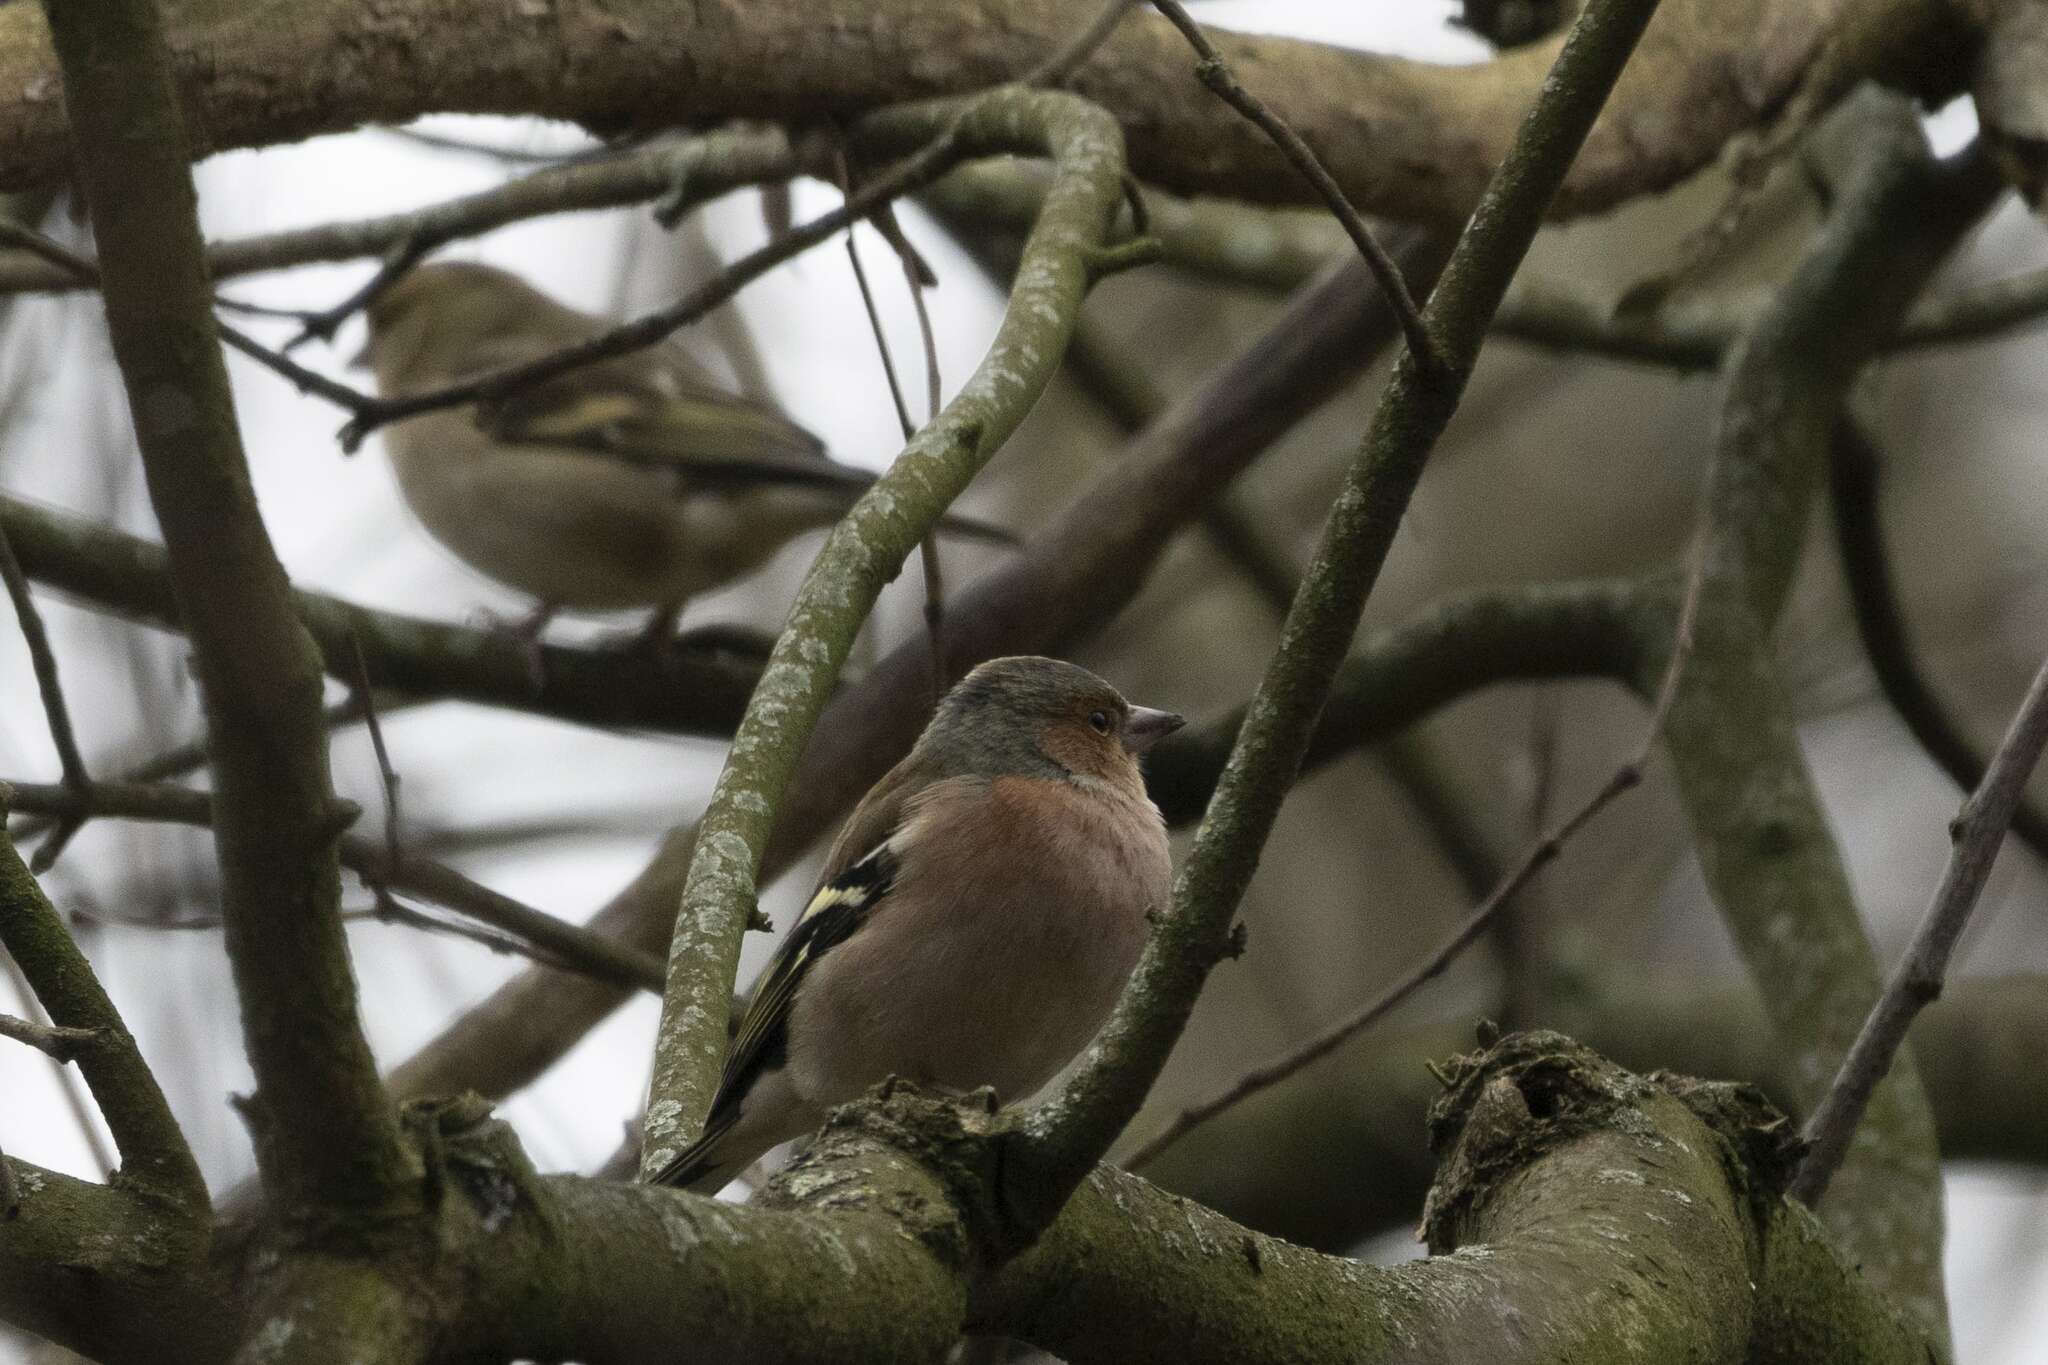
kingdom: Animalia
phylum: Chordata
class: Aves
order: Passeriformes
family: Fringillidae
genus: Fringilla
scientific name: Fringilla coelebs
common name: Common chaffinch
